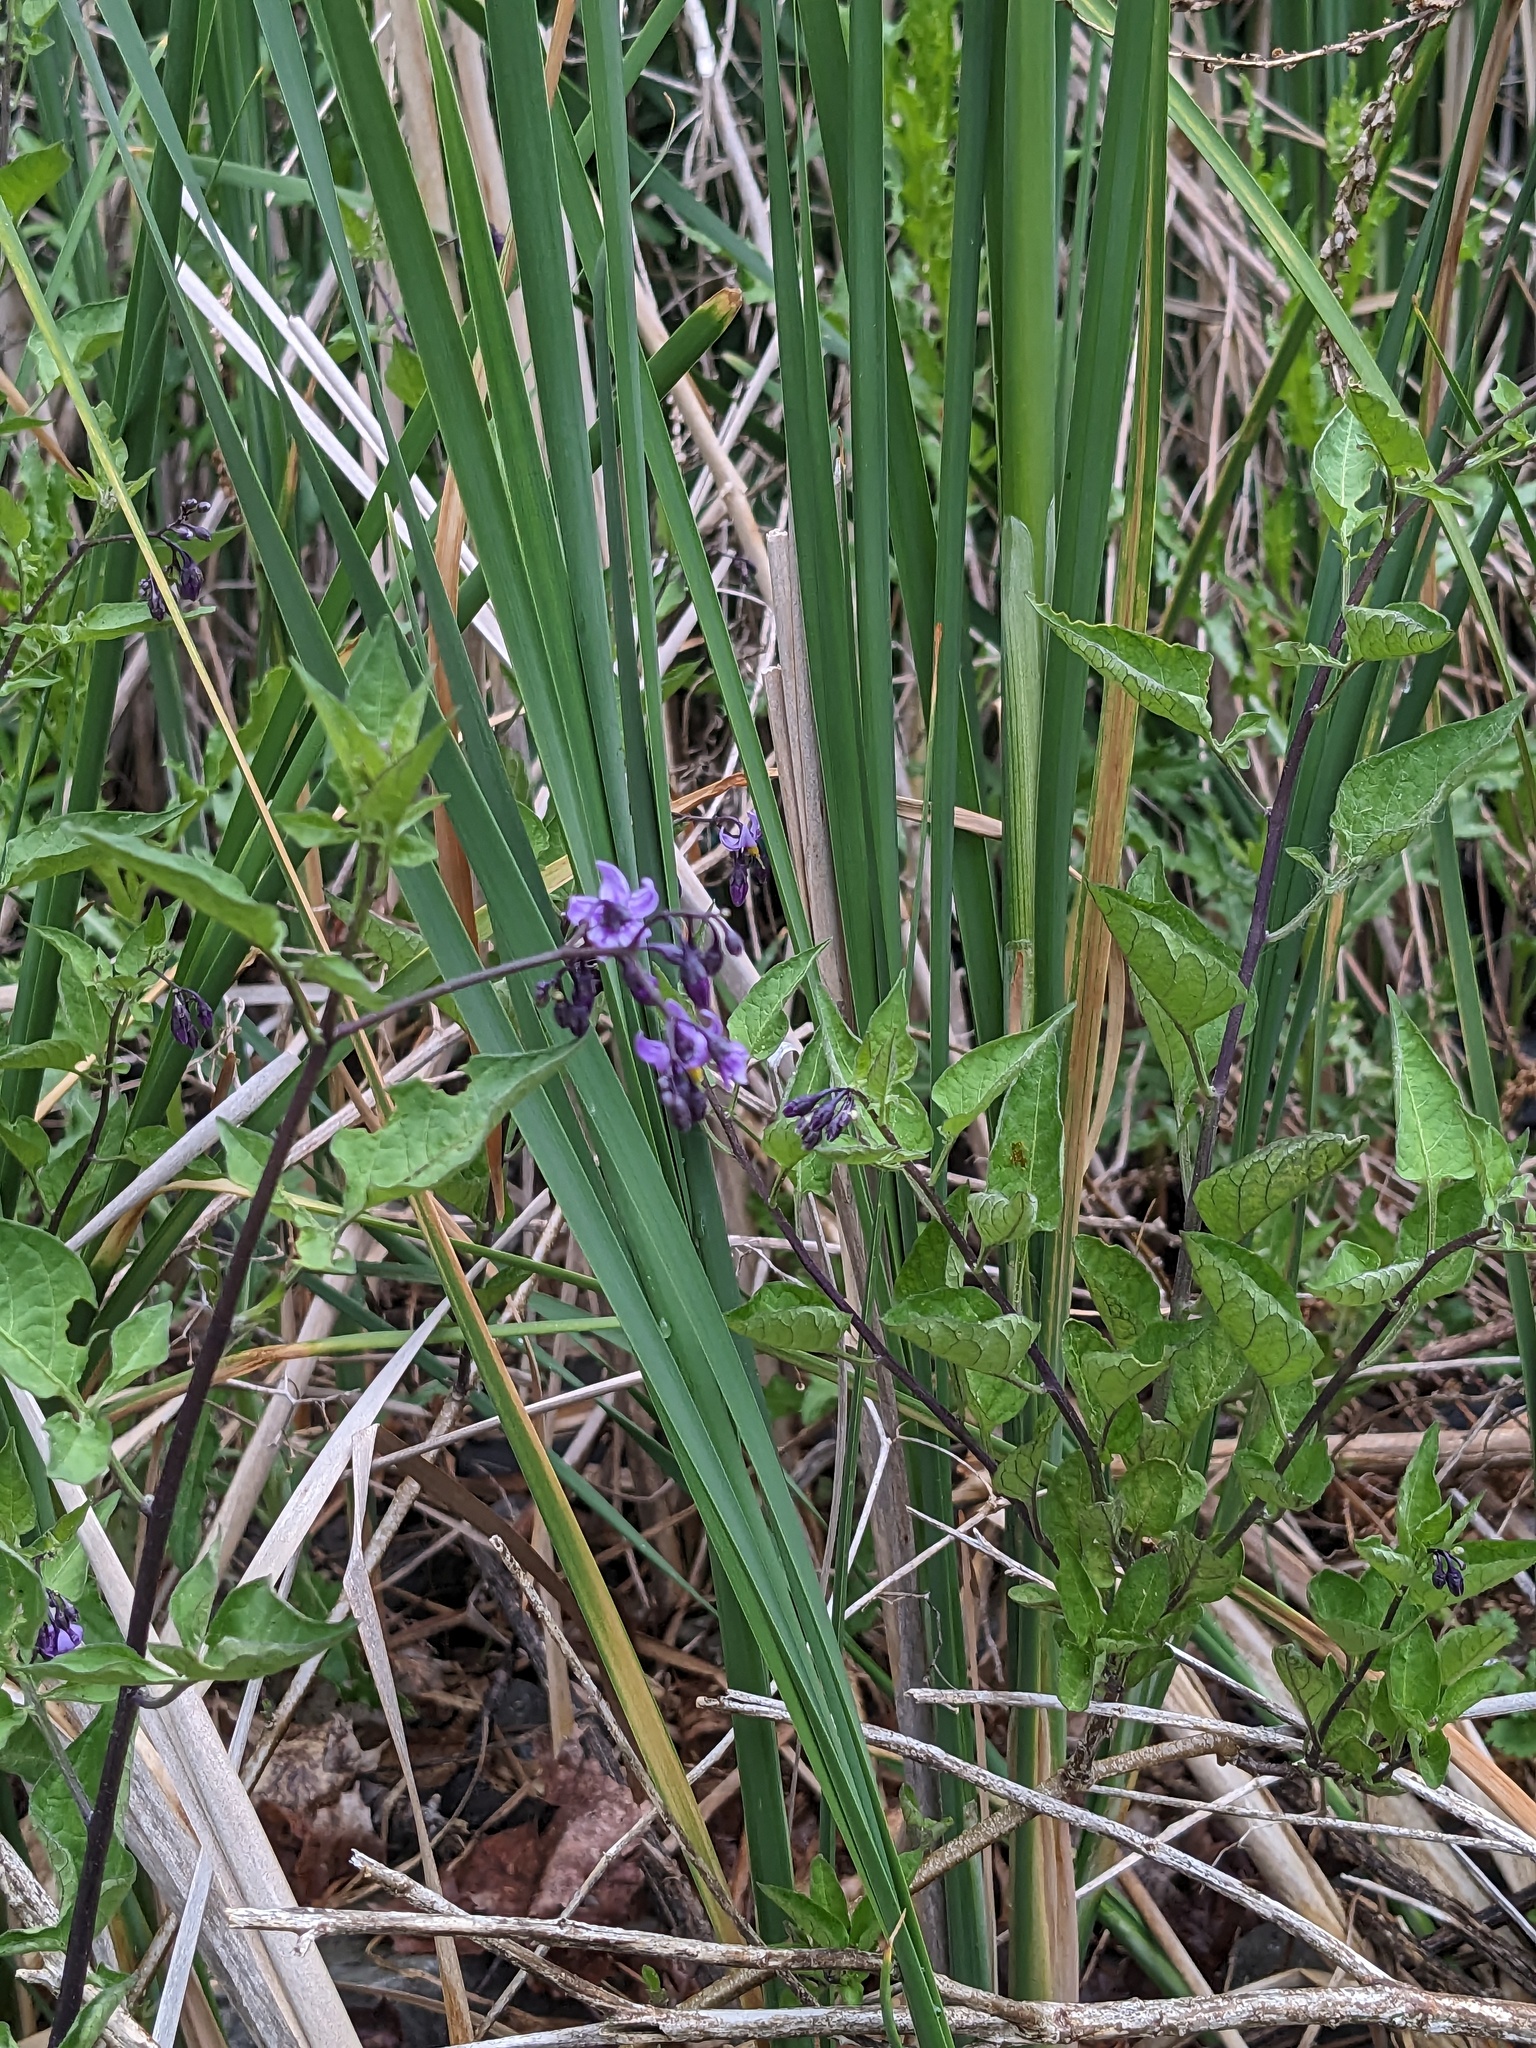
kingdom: Plantae
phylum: Tracheophyta
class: Magnoliopsida
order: Solanales
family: Solanaceae
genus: Solanum
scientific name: Solanum dulcamara
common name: Climbing nightshade
